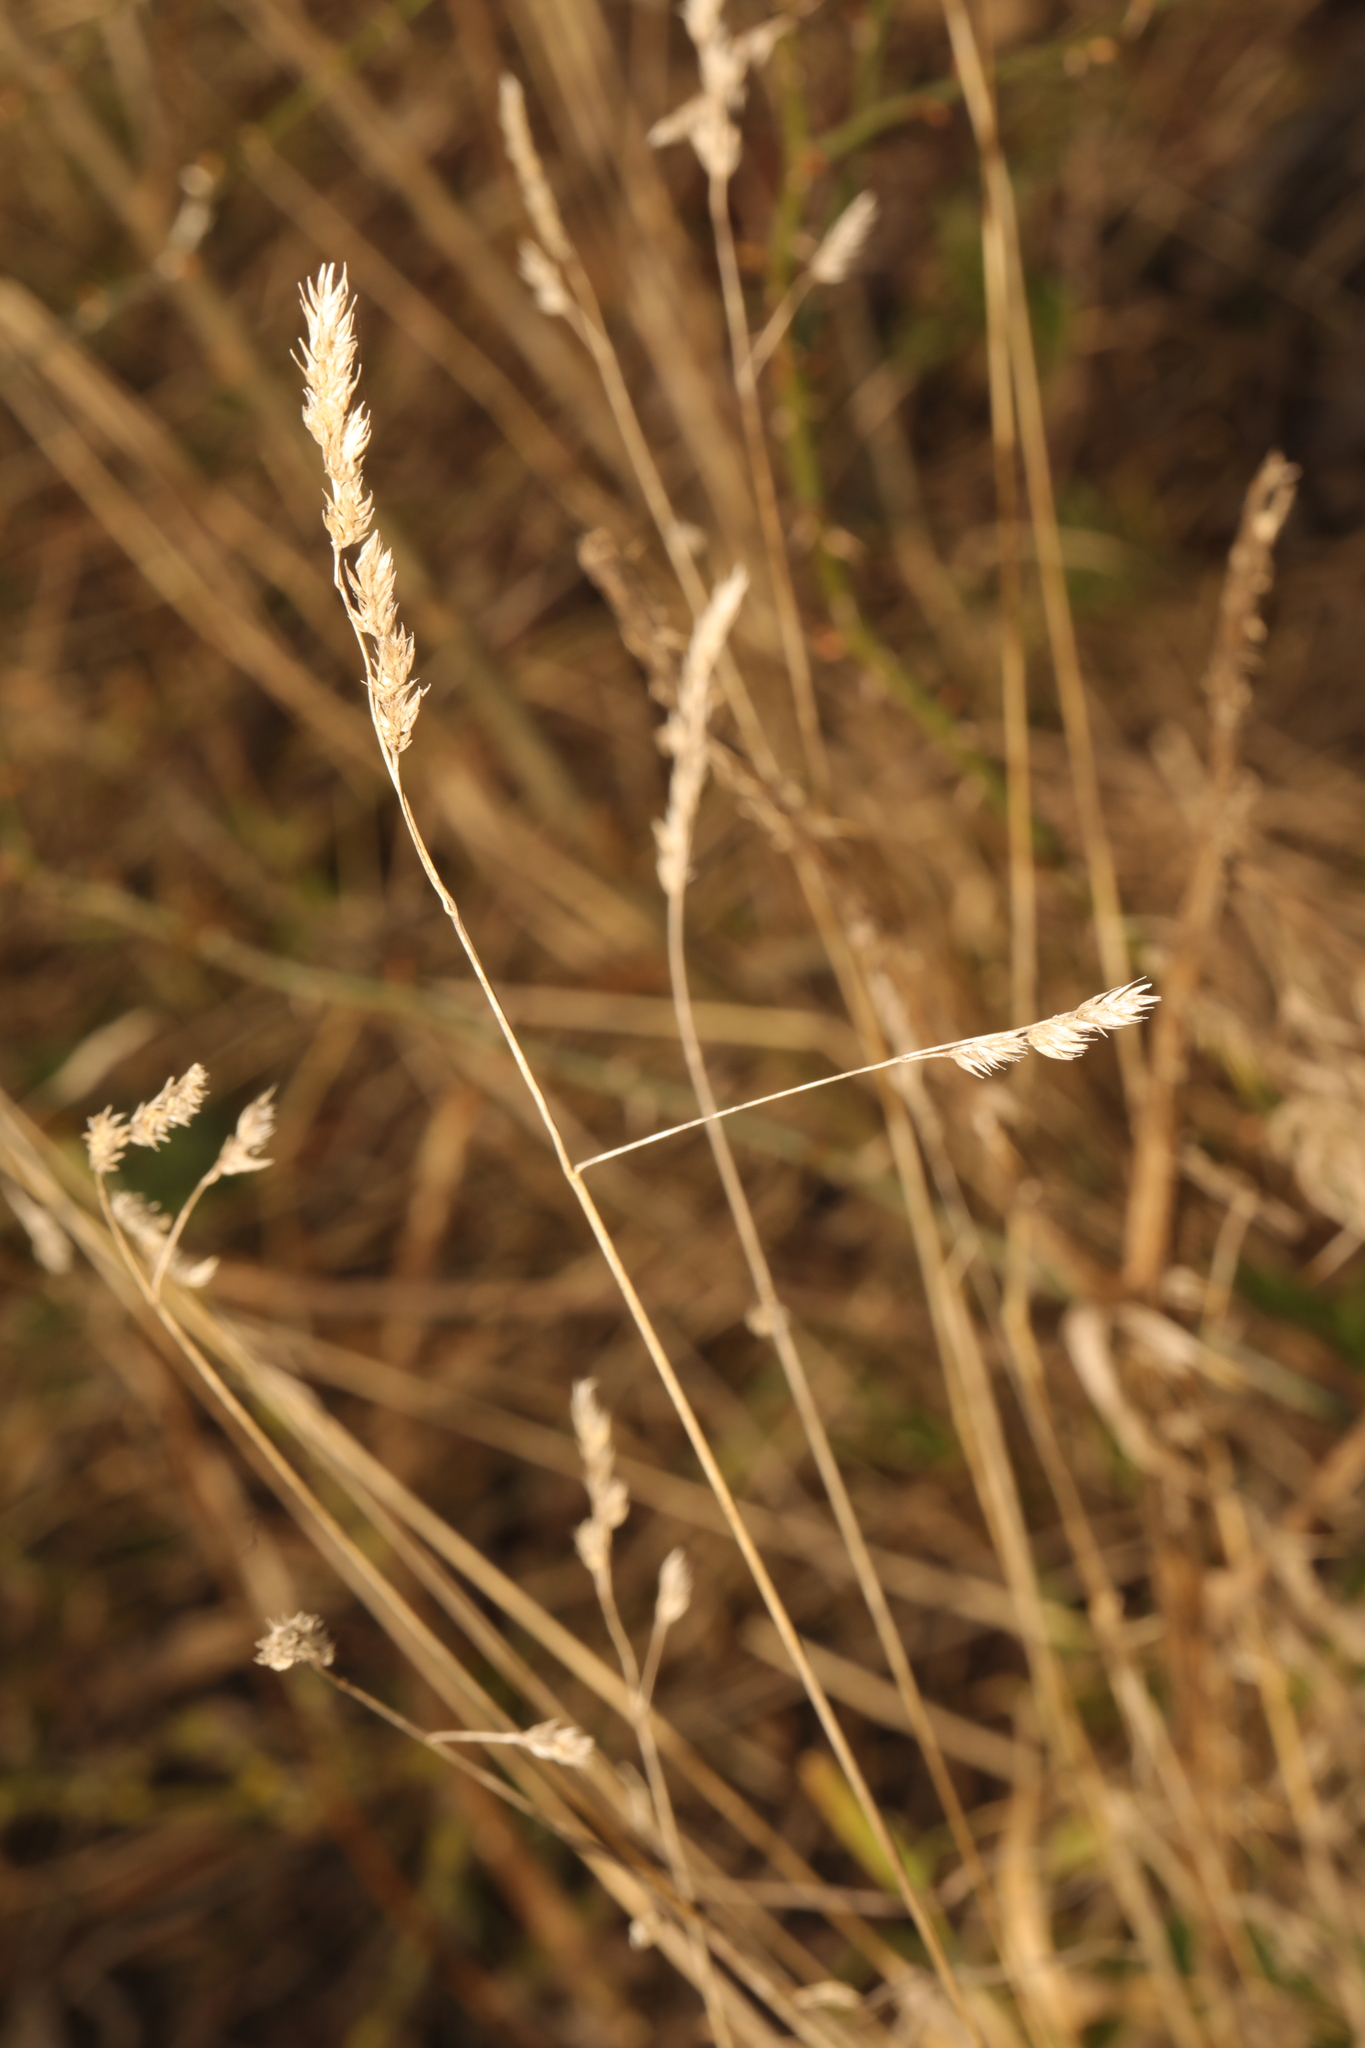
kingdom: Plantae
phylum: Tracheophyta
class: Liliopsida
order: Poales
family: Poaceae
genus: Dactylis
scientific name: Dactylis glomerata
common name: Orchardgrass
